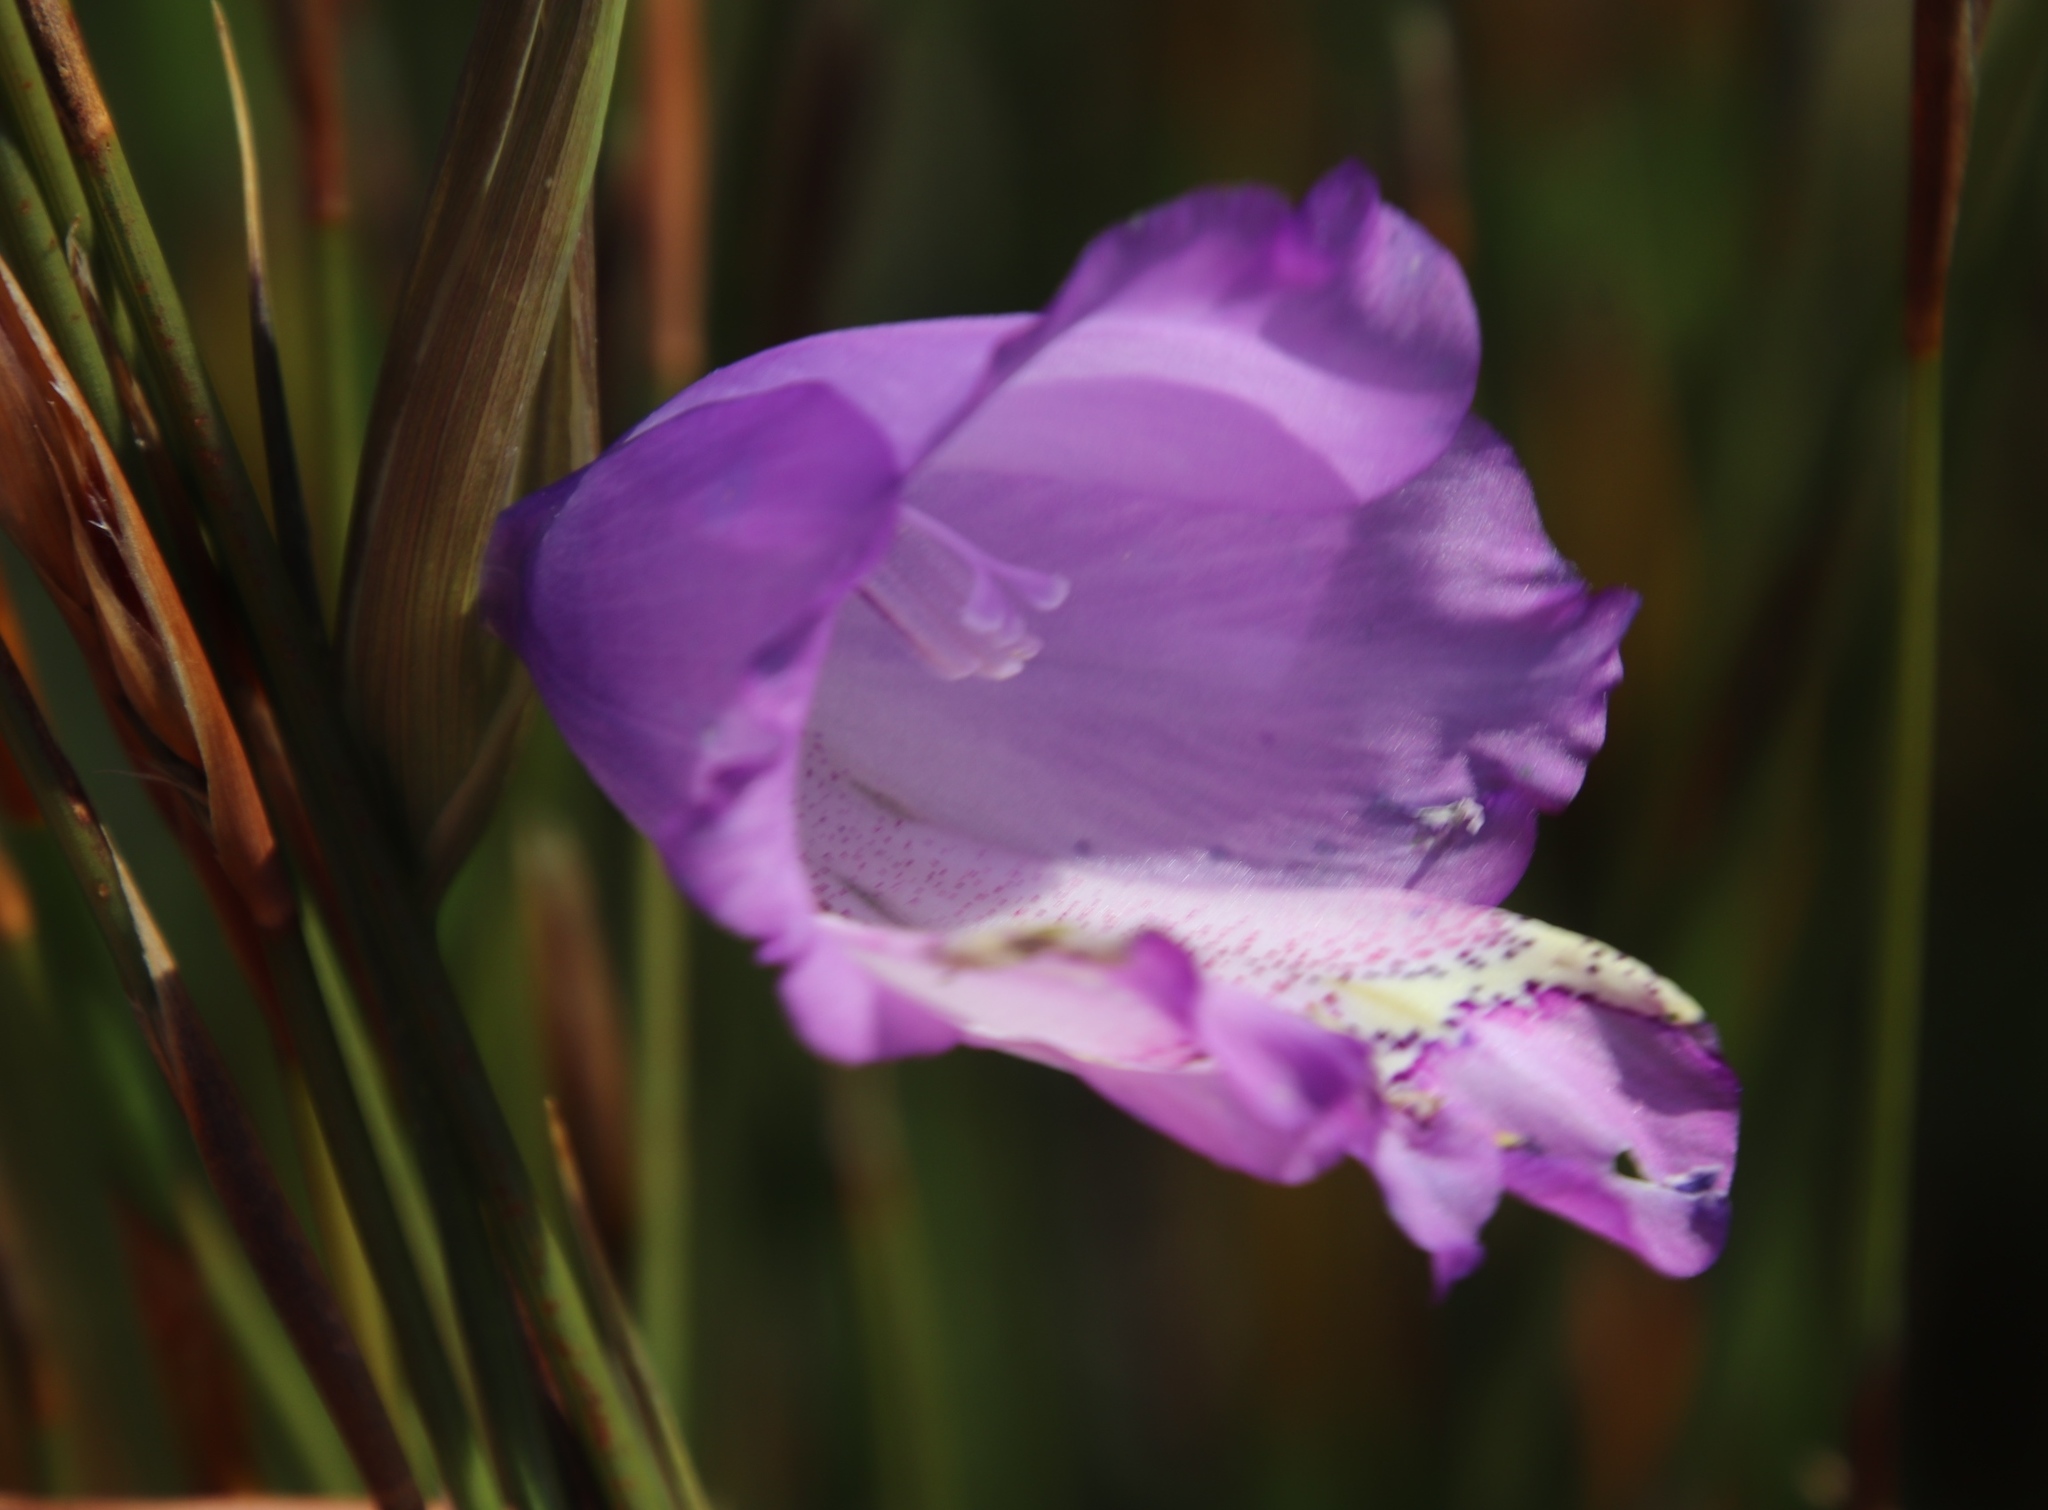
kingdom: Plantae
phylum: Tracheophyta
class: Liliopsida
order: Asparagales
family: Iridaceae
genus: Gladiolus
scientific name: Gladiolus bullatus
